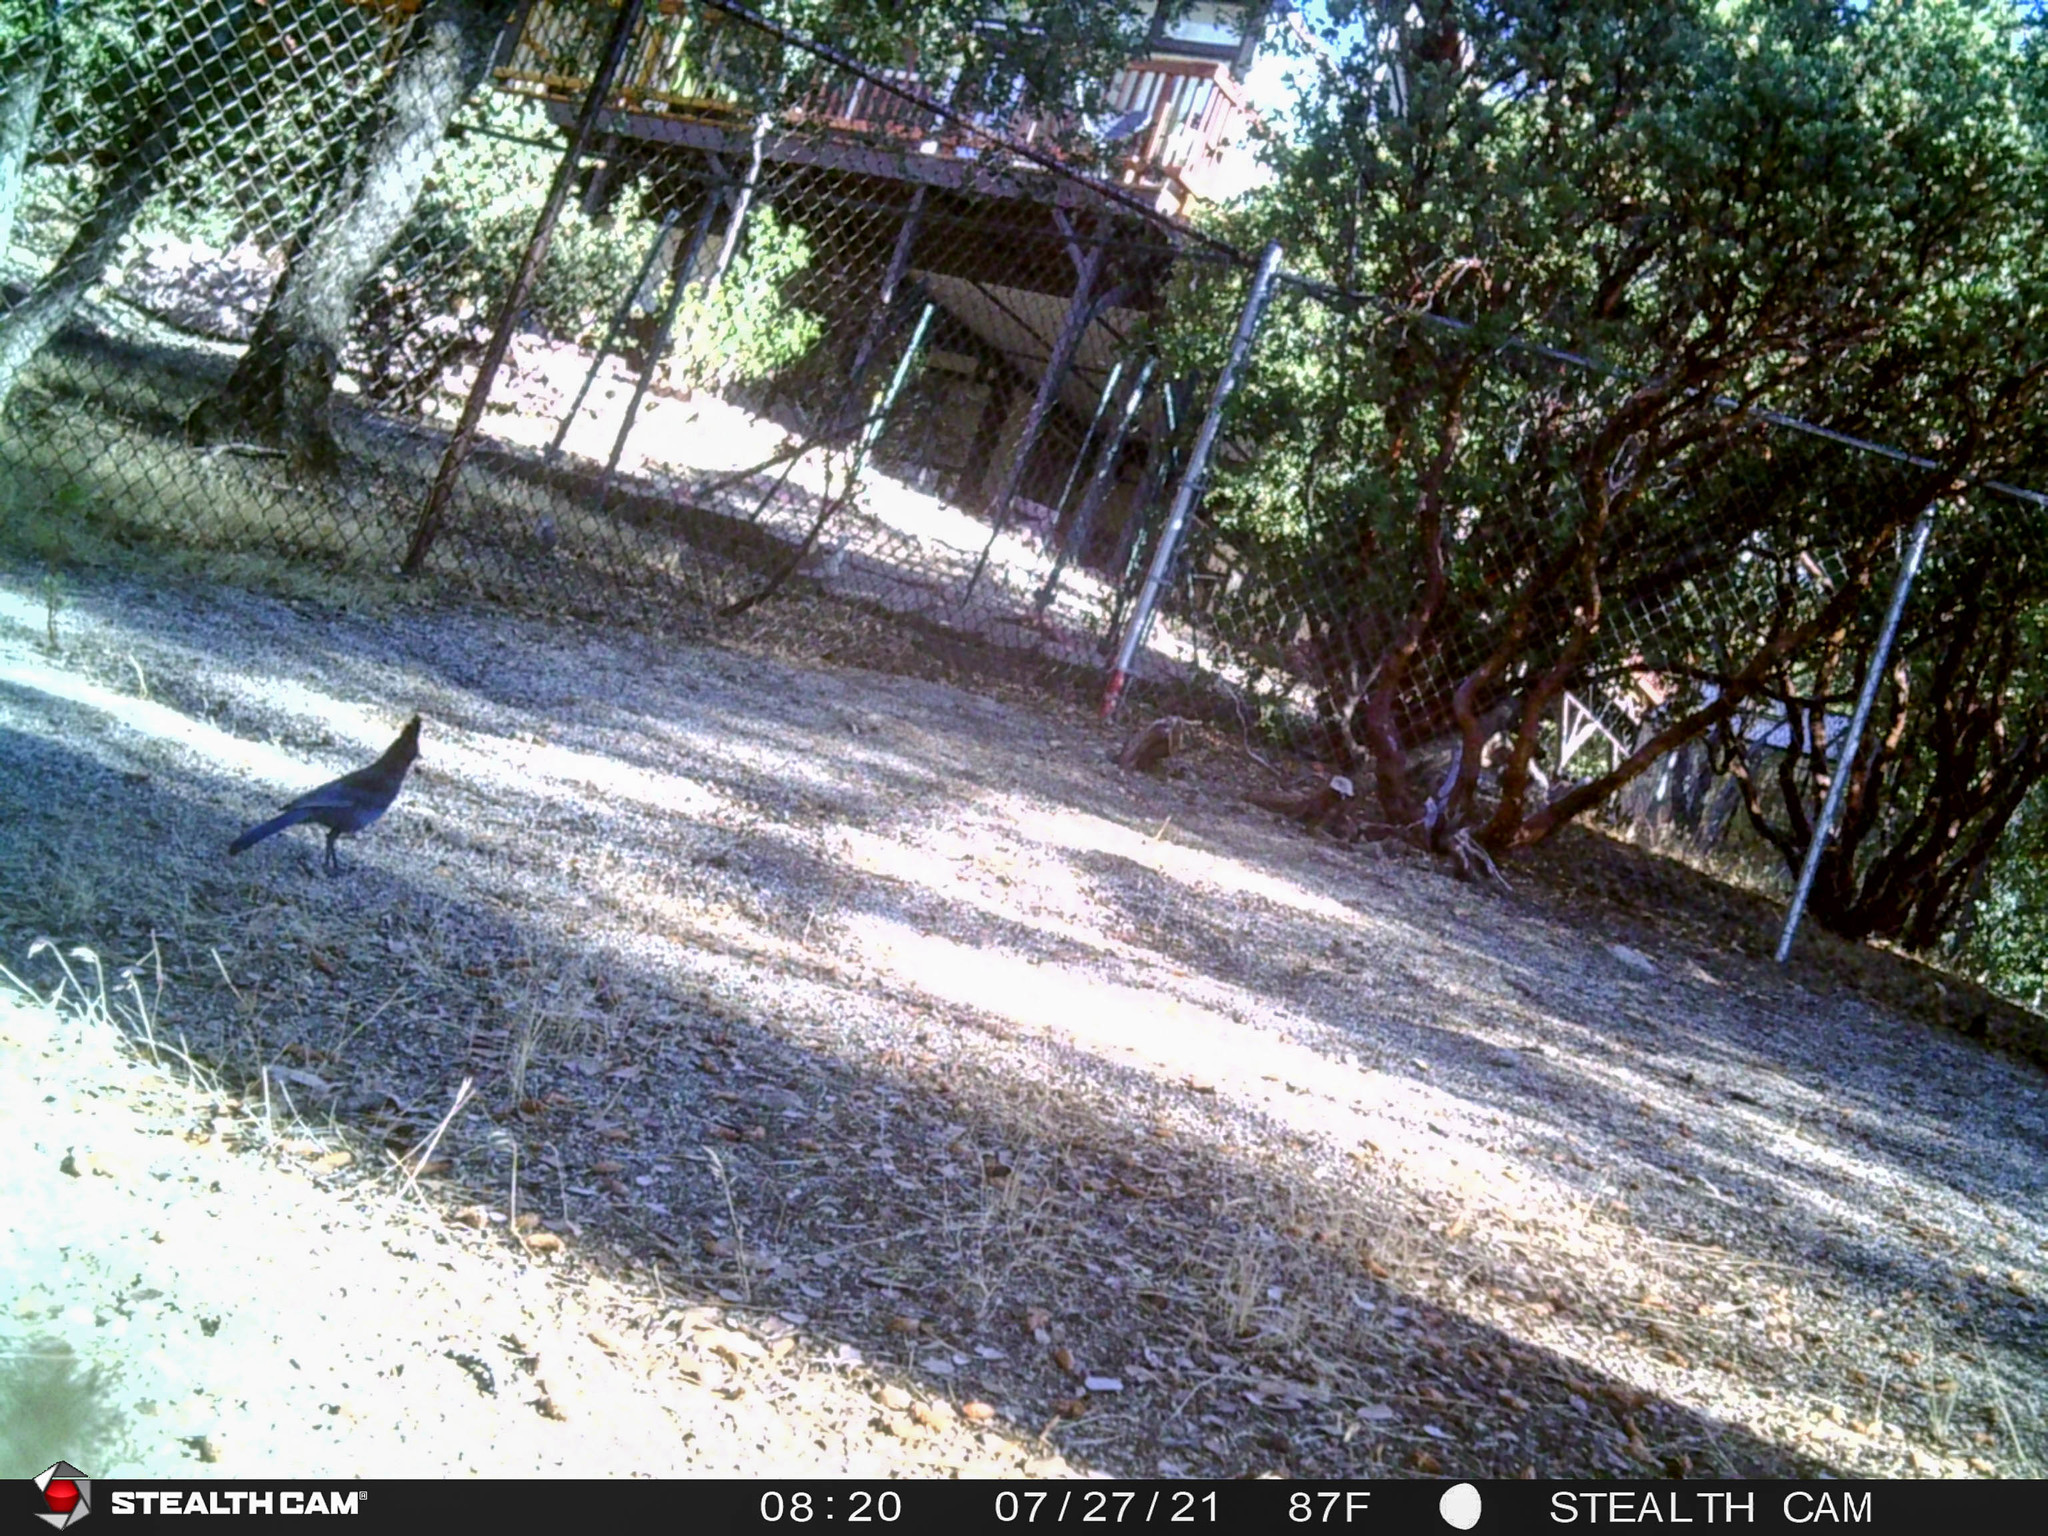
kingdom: Animalia
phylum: Chordata
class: Aves
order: Passeriformes
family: Corvidae
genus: Cyanocitta
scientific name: Cyanocitta stelleri
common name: Steller's jay
